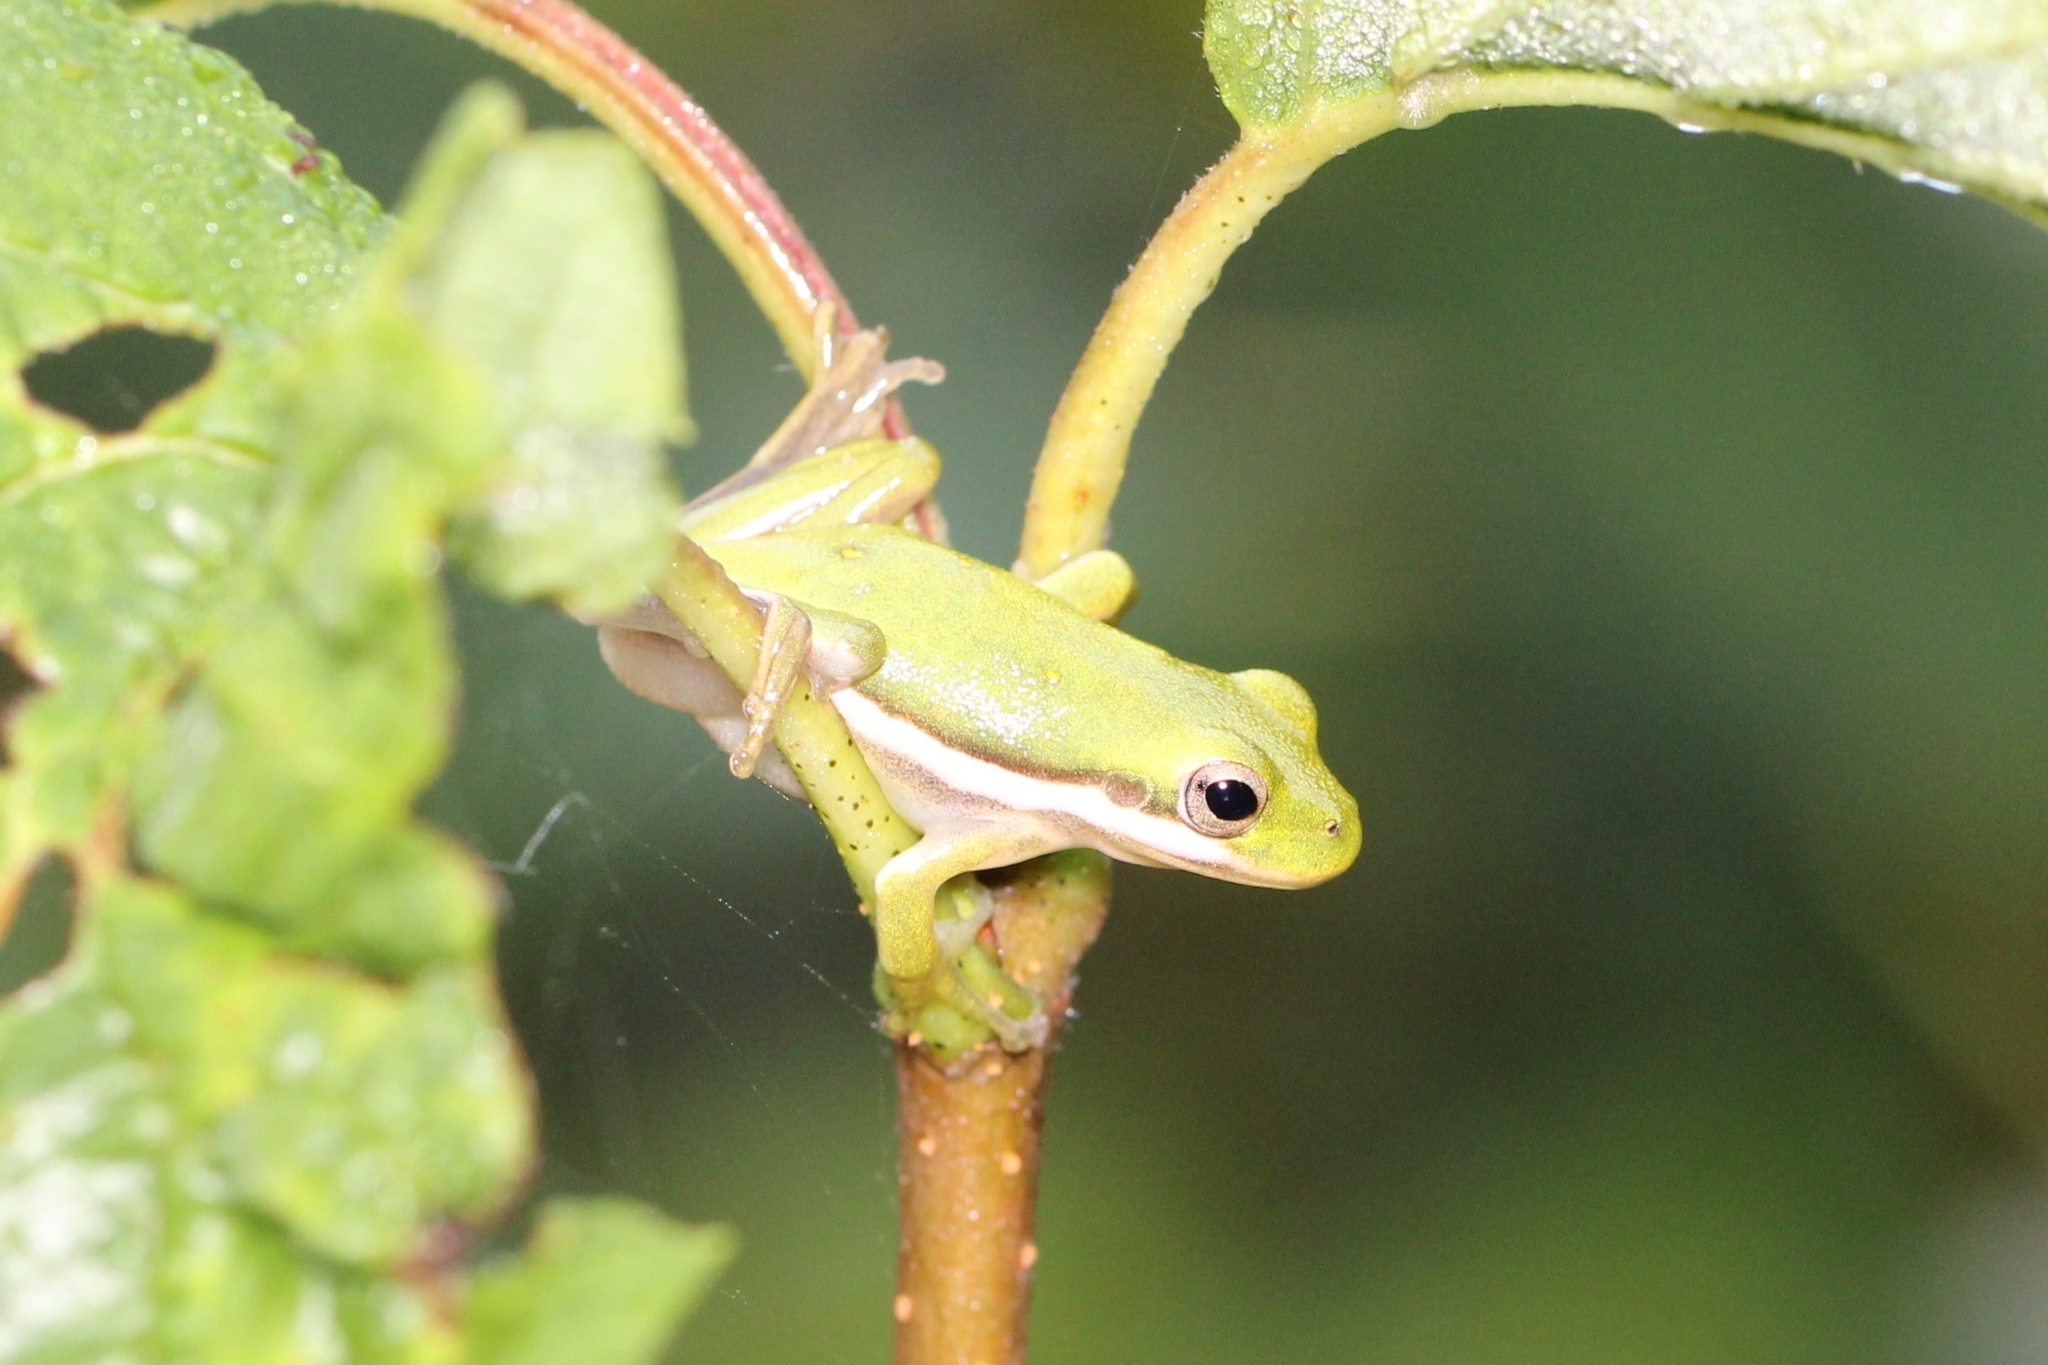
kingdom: Animalia
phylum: Chordata
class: Amphibia
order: Anura
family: Hylidae
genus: Dryophytes
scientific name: Dryophytes cinereus
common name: Green treefrog
